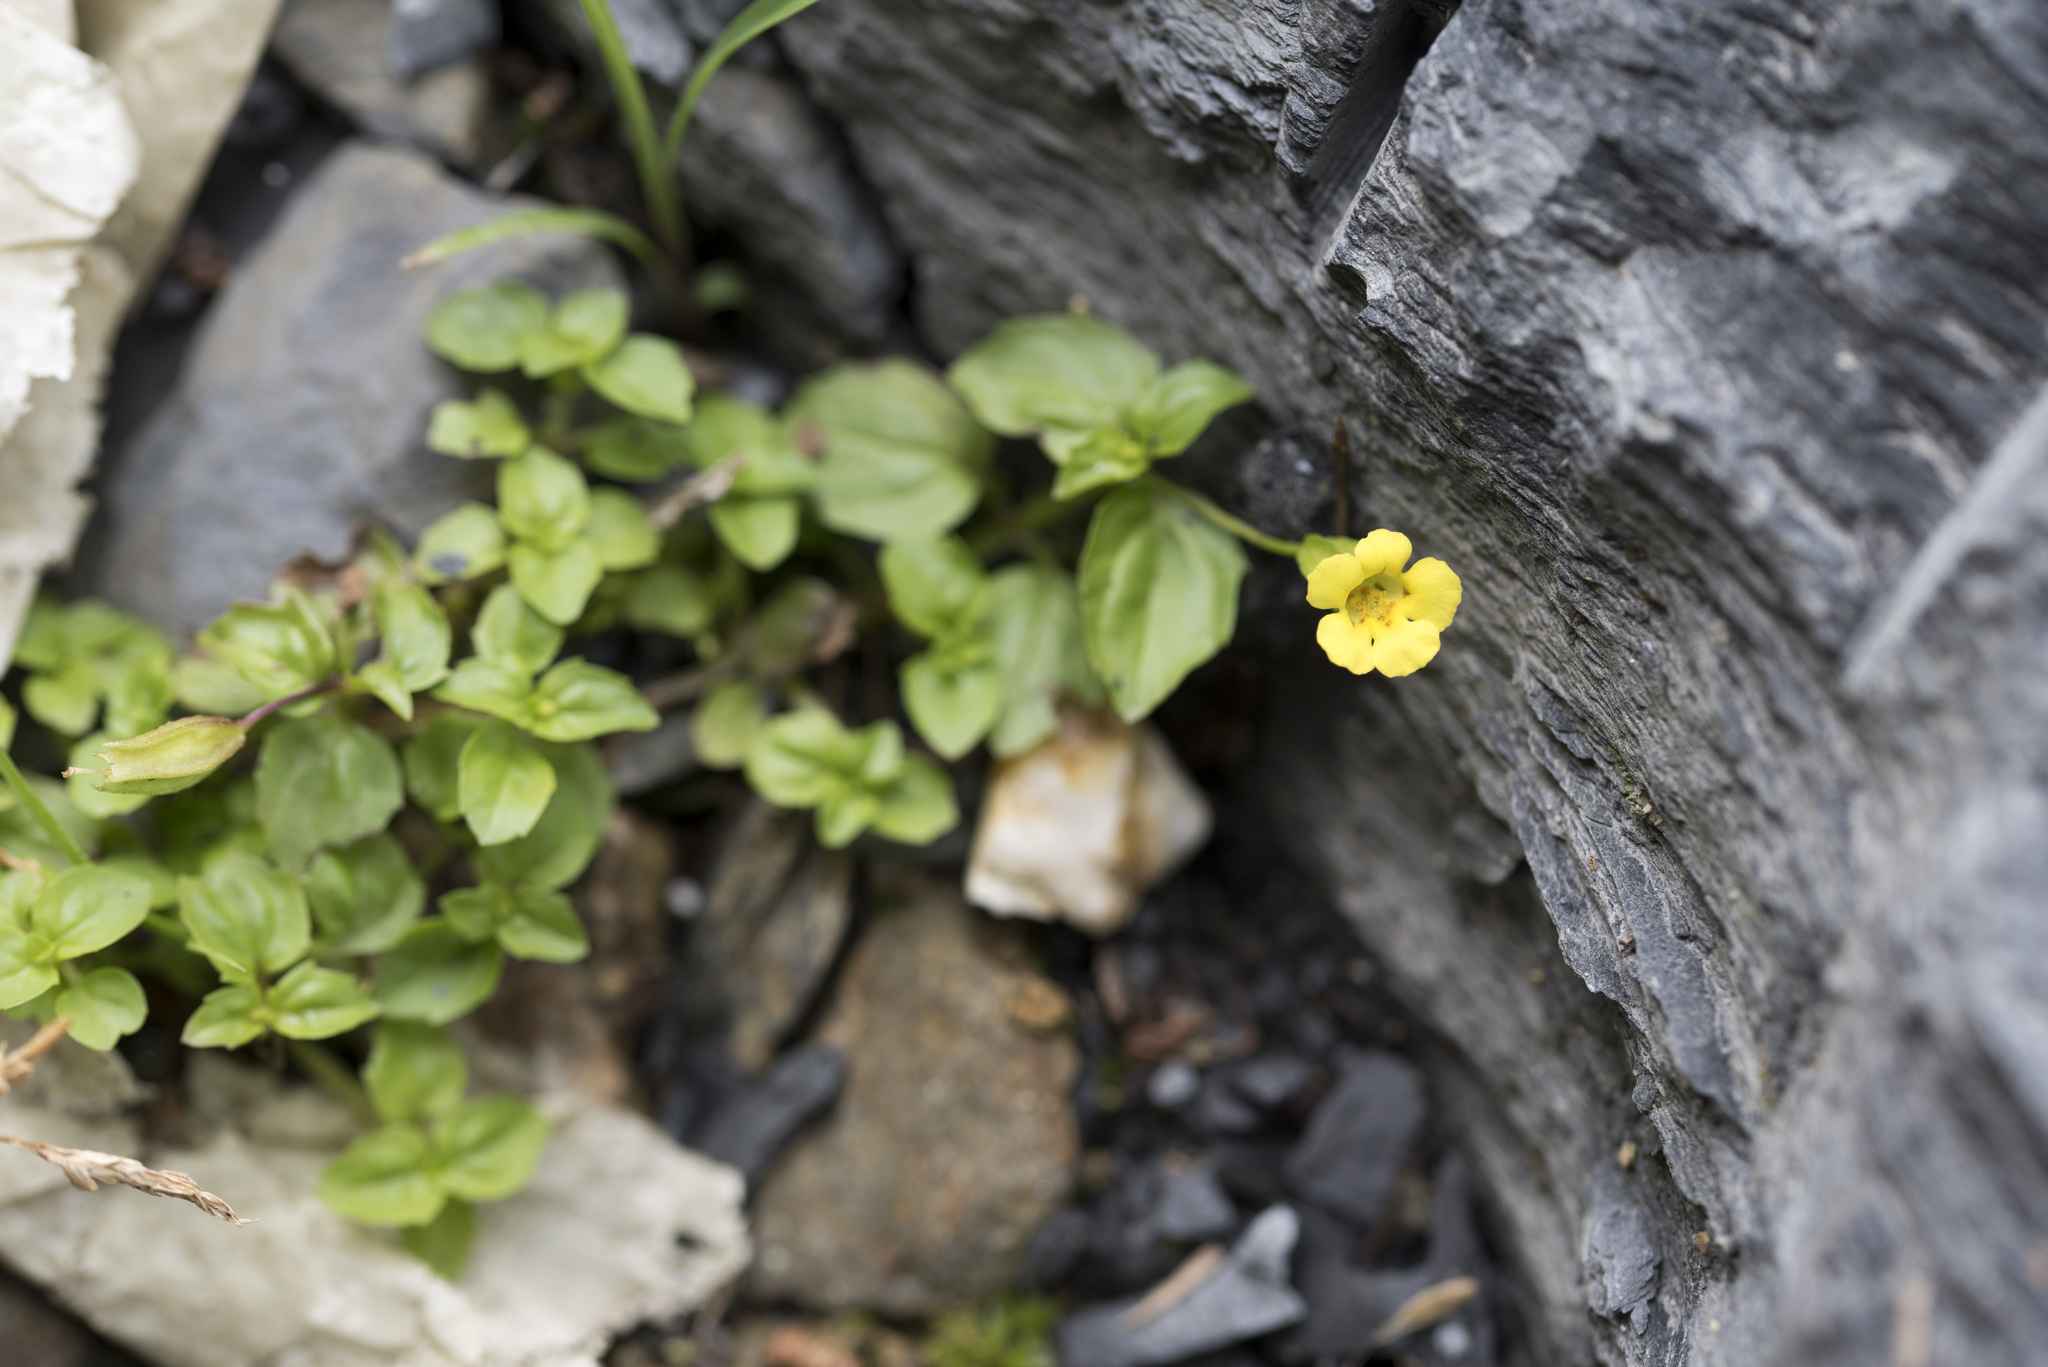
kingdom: Plantae
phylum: Tracheophyta
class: Magnoliopsida
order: Lamiales
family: Plantaginaceae
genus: Mecardonia
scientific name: Mecardonia procumbens
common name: Baby jump-up
